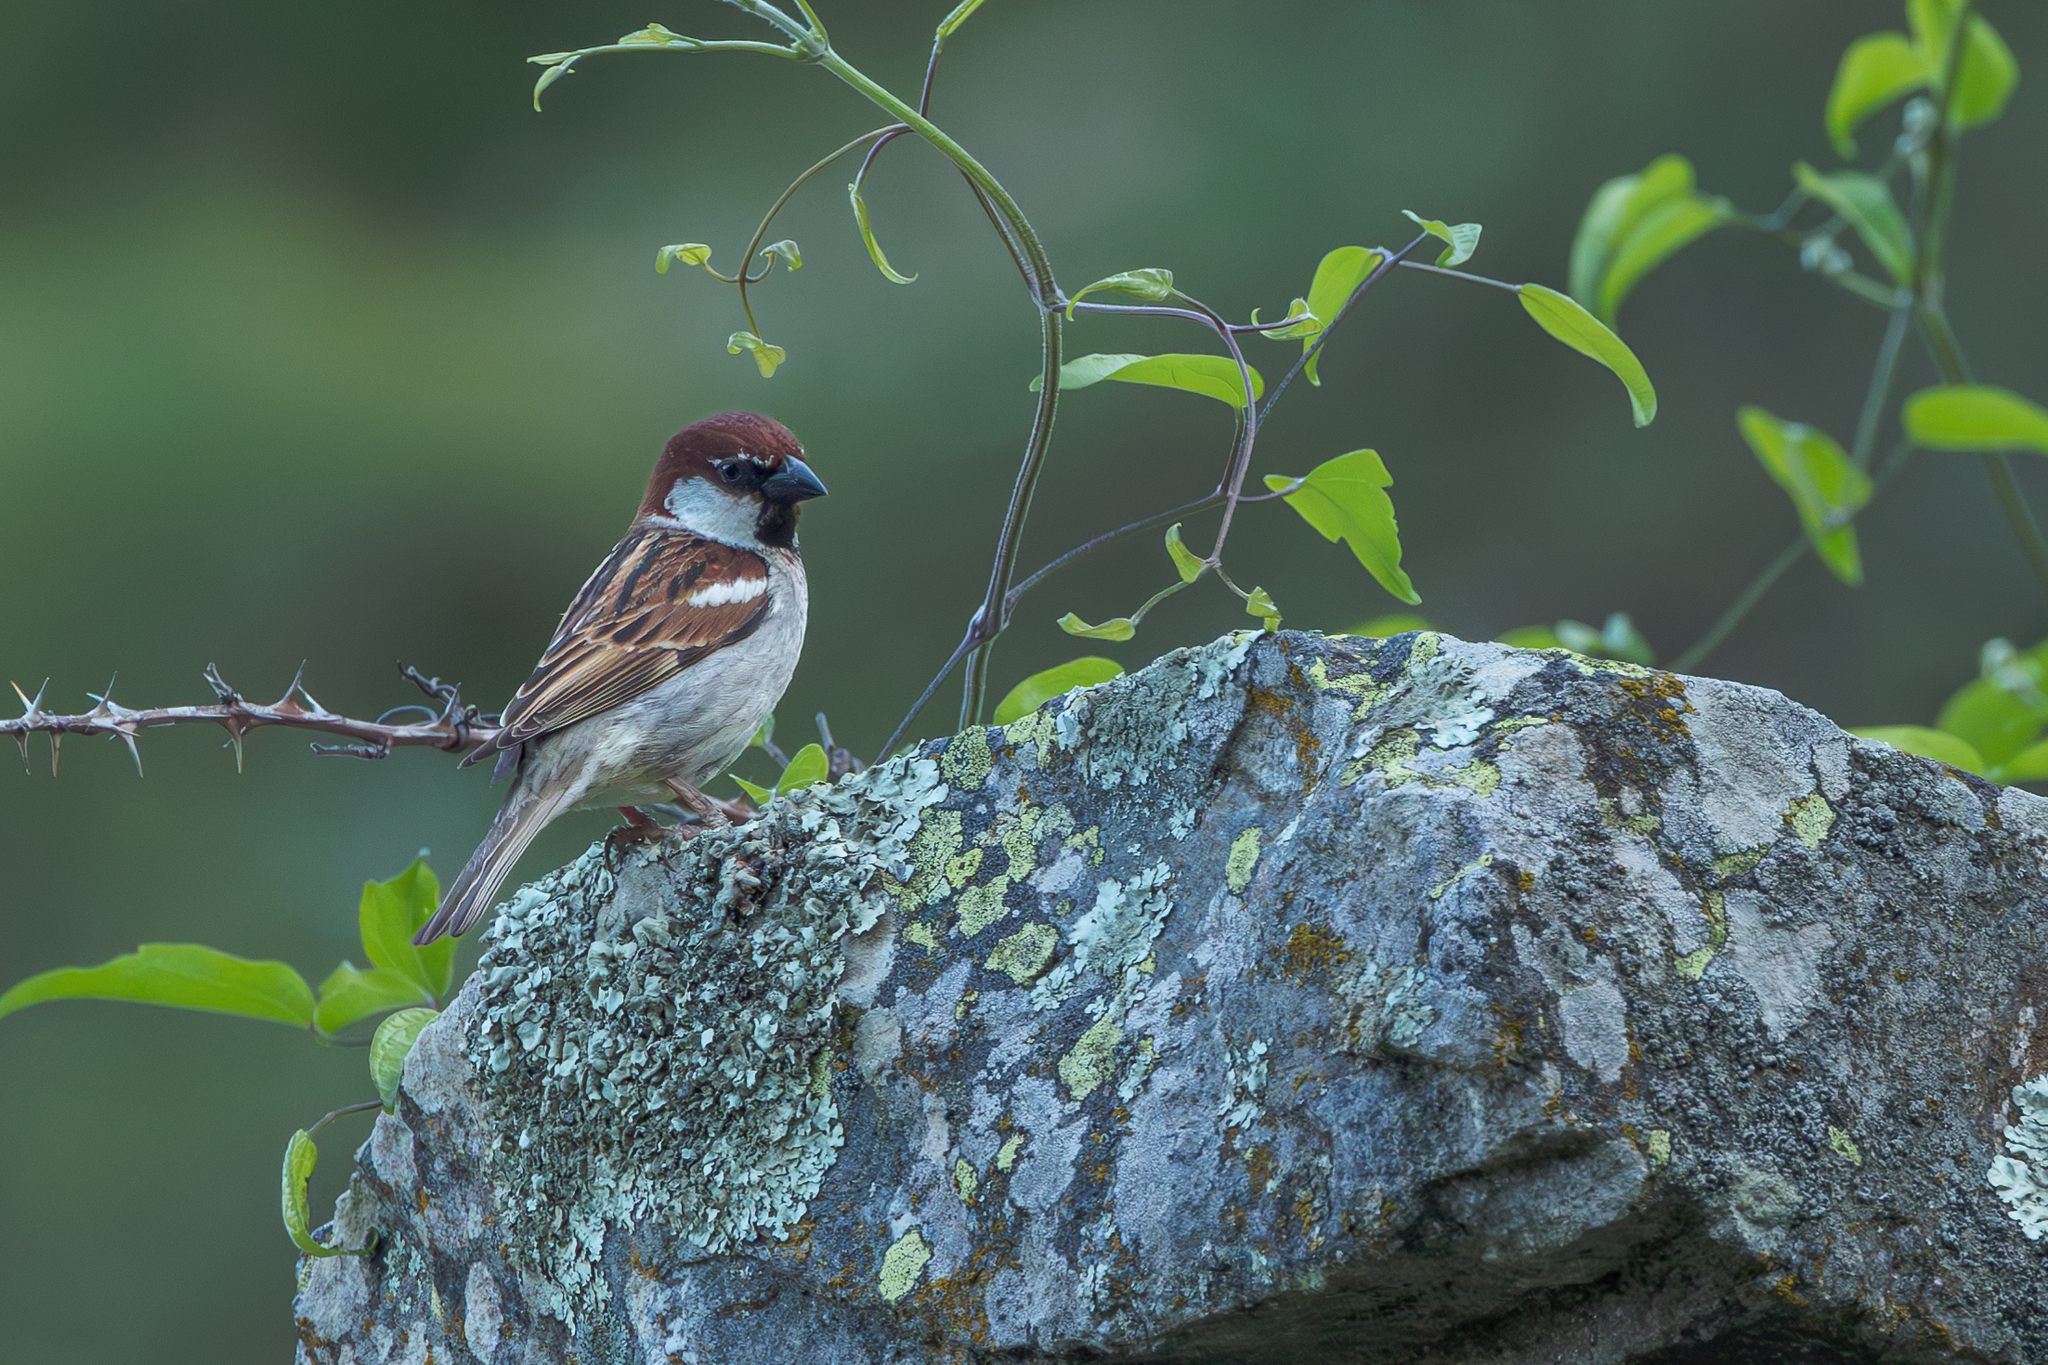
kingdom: Animalia
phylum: Chordata
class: Aves
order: Passeriformes
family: Passeridae
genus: Passer
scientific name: Passer italiae
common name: Italian sparrow
